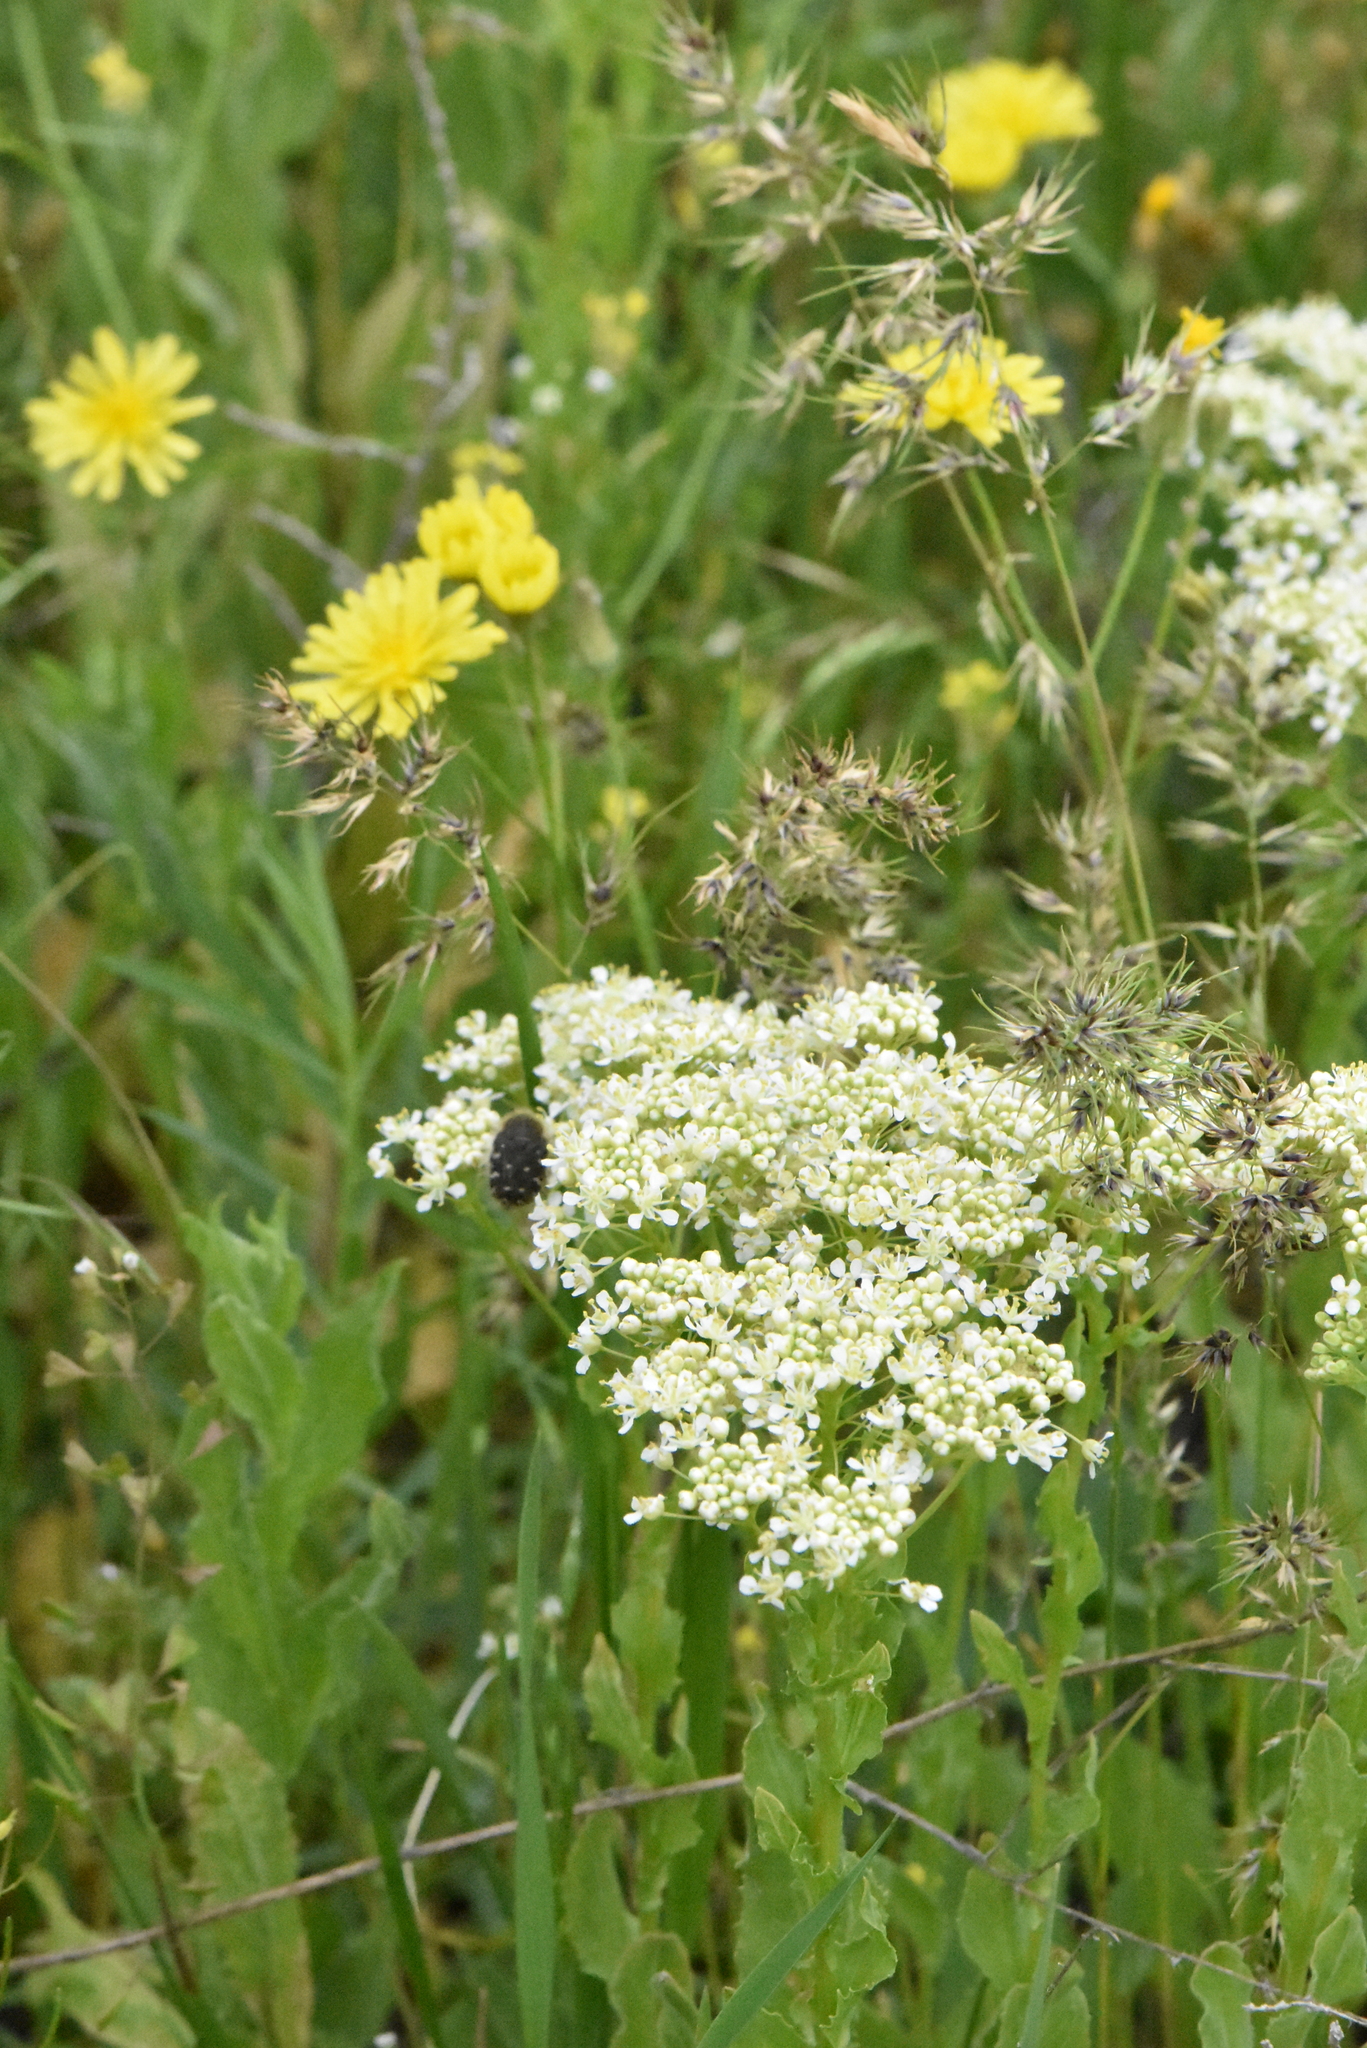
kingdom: Plantae
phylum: Tracheophyta
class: Magnoliopsida
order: Brassicales
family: Brassicaceae
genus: Lepidium
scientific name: Lepidium draba
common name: Hoary cress
